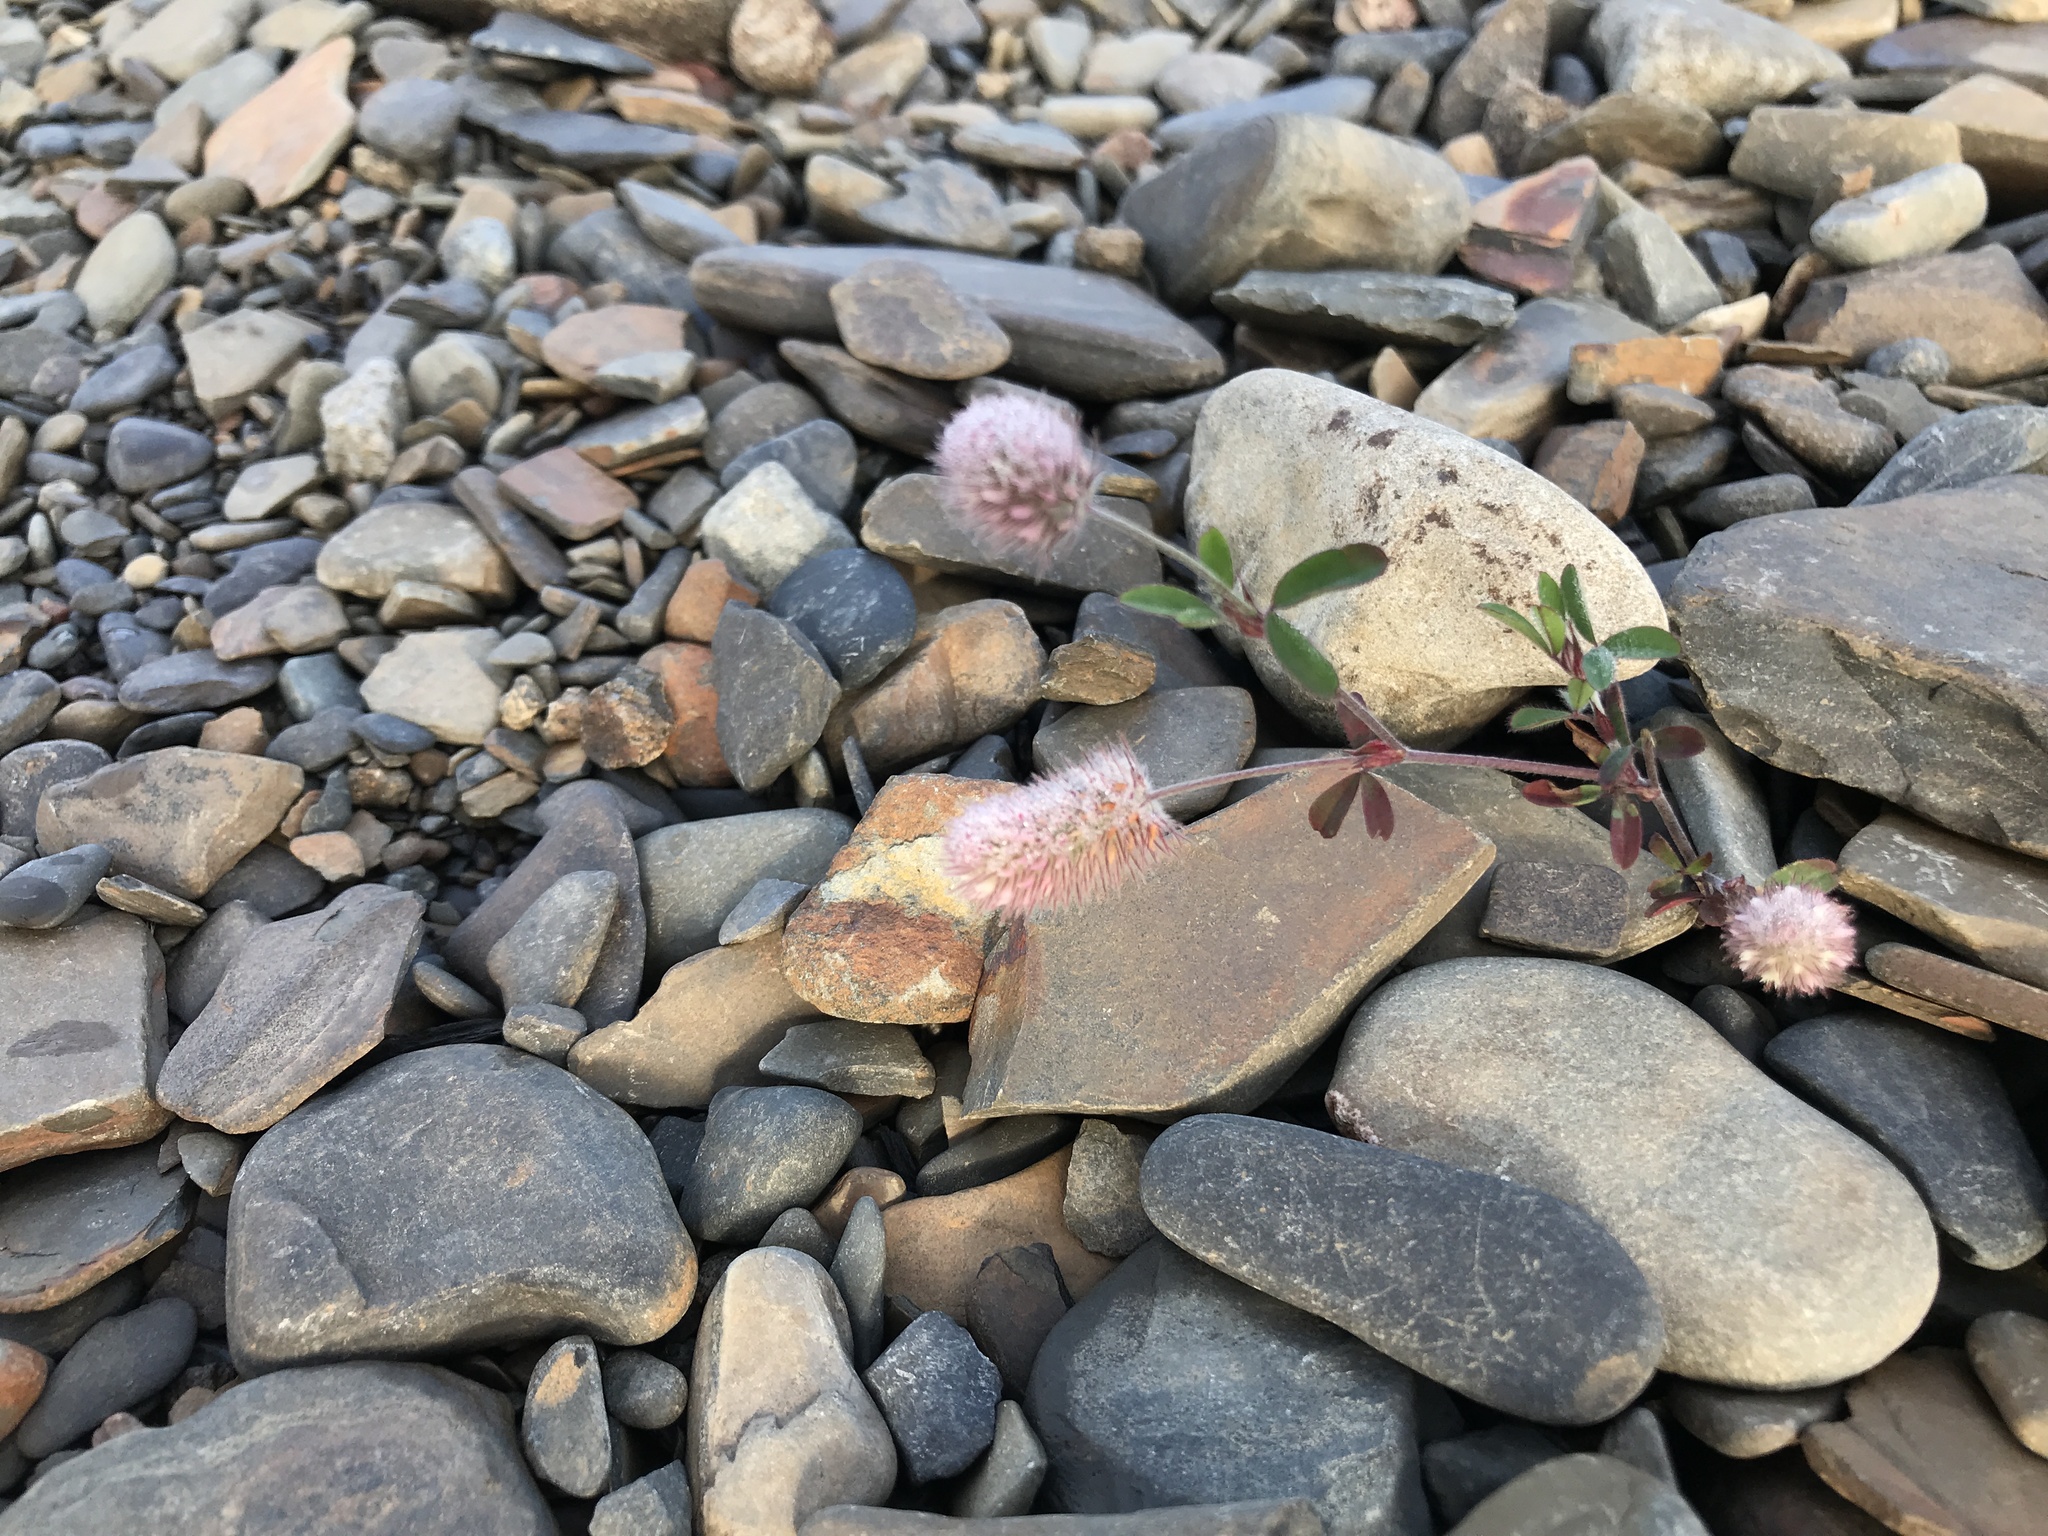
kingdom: Plantae
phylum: Tracheophyta
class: Magnoliopsida
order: Fabales
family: Fabaceae
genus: Trifolium
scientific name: Trifolium arvense
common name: Hare's-foot clover
